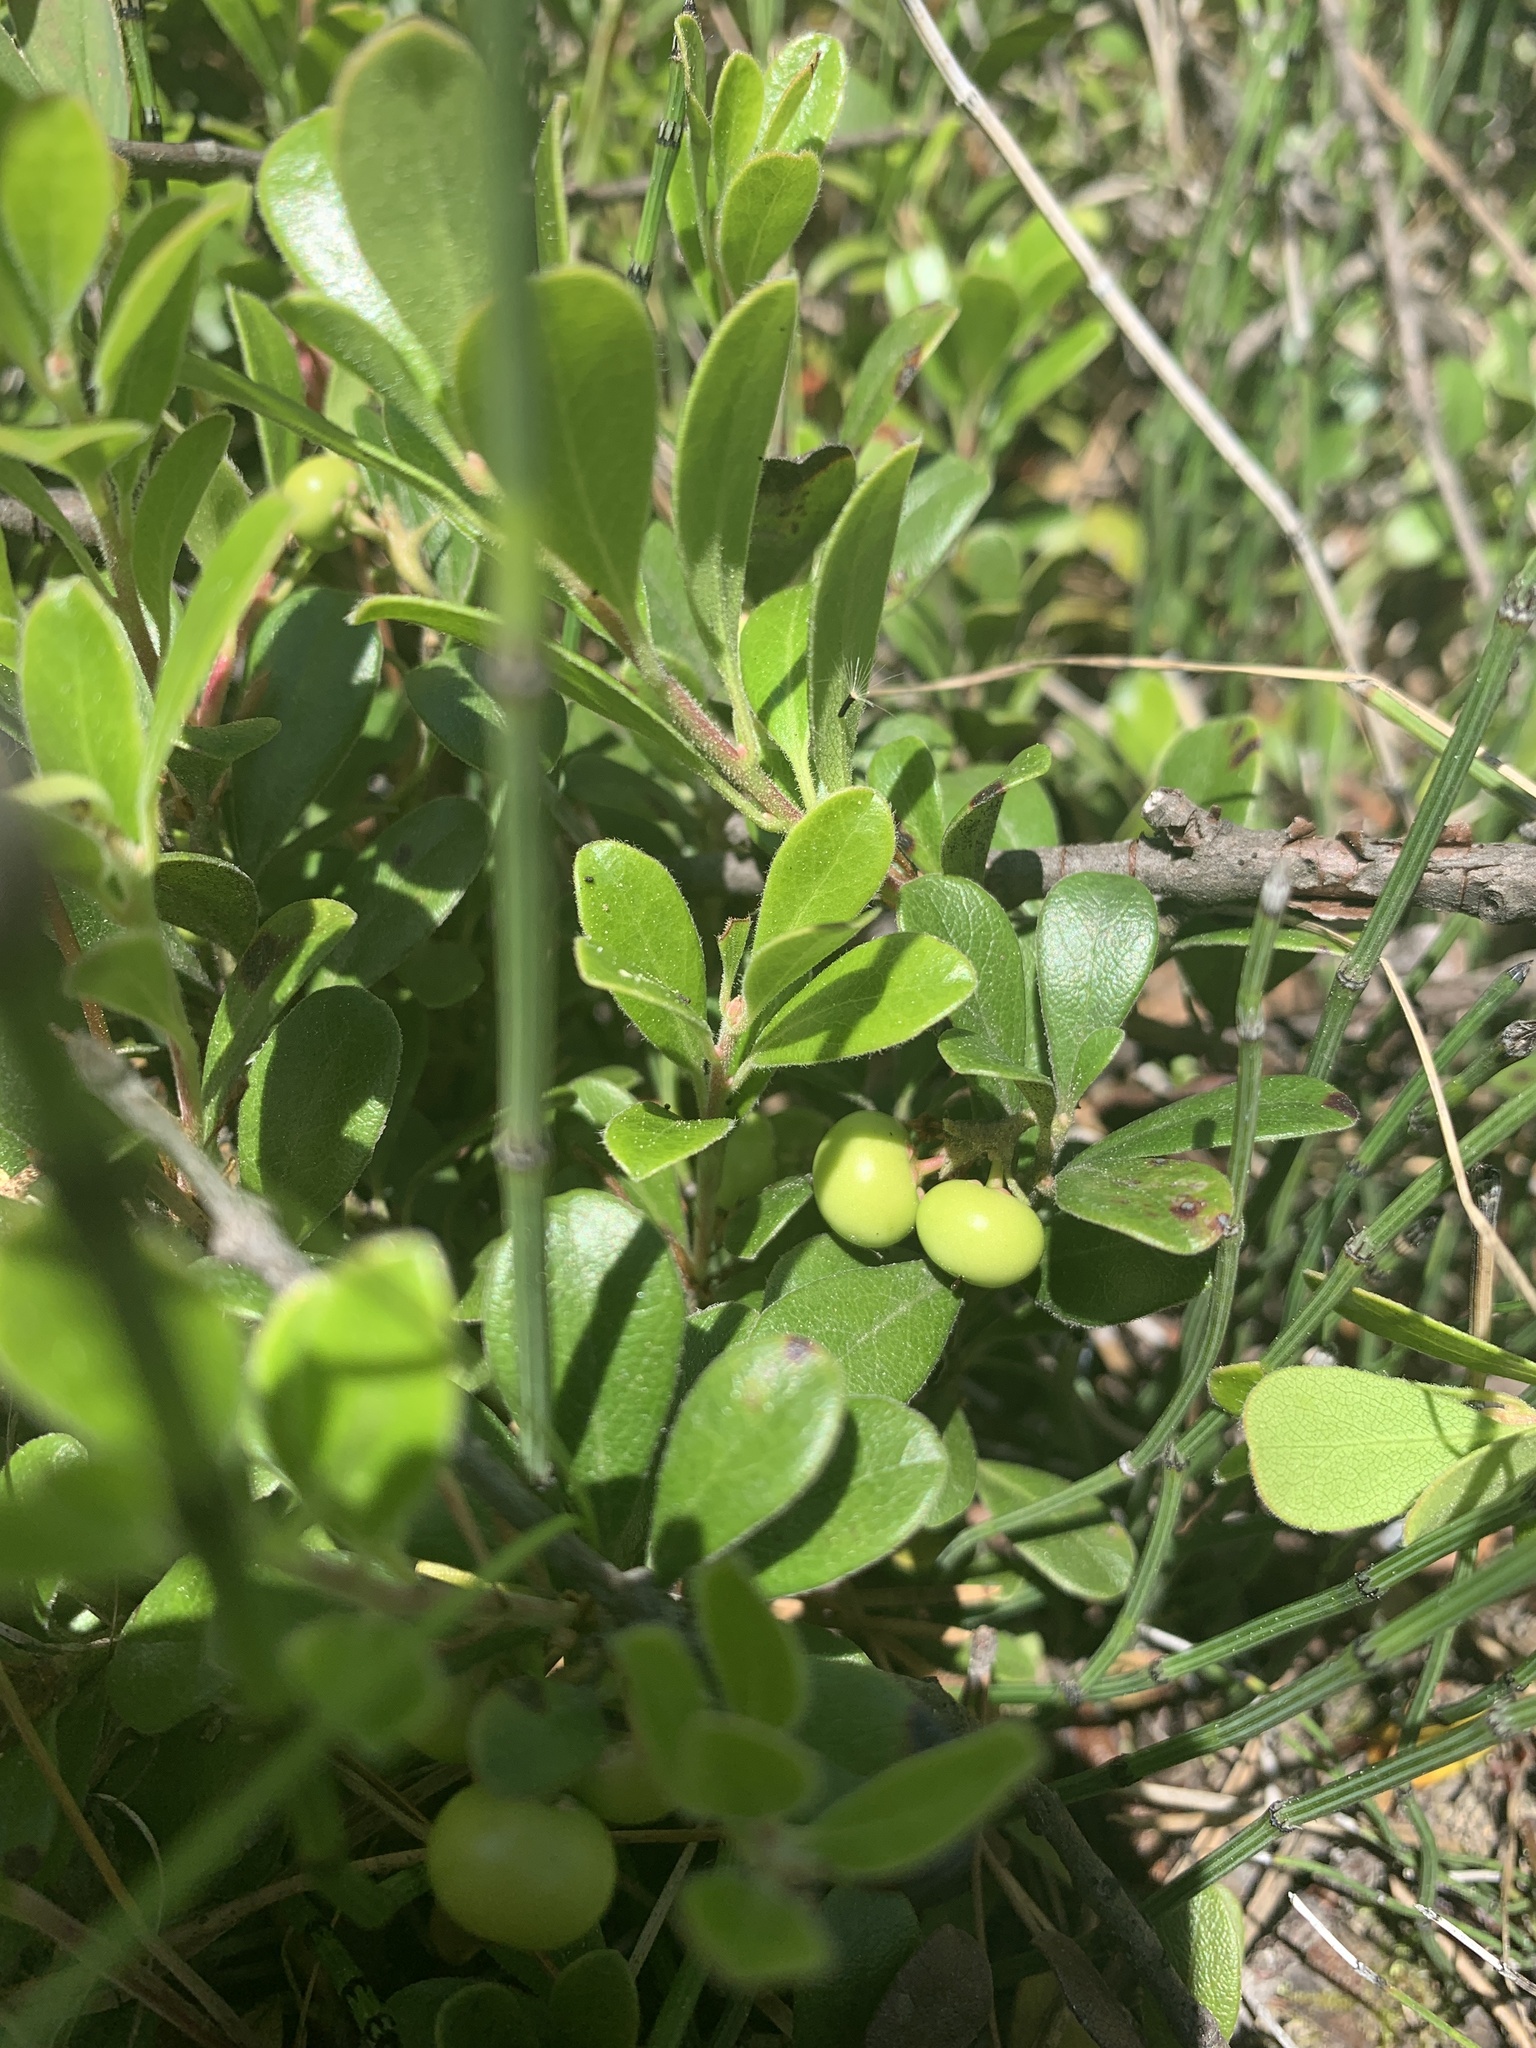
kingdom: Plantae
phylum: Tracheophyta
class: Magnoliopsida
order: Ericales
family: Ericaceae
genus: Arctostaphylos
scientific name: Arctostaphylos uva-ursi
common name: Bearberry
